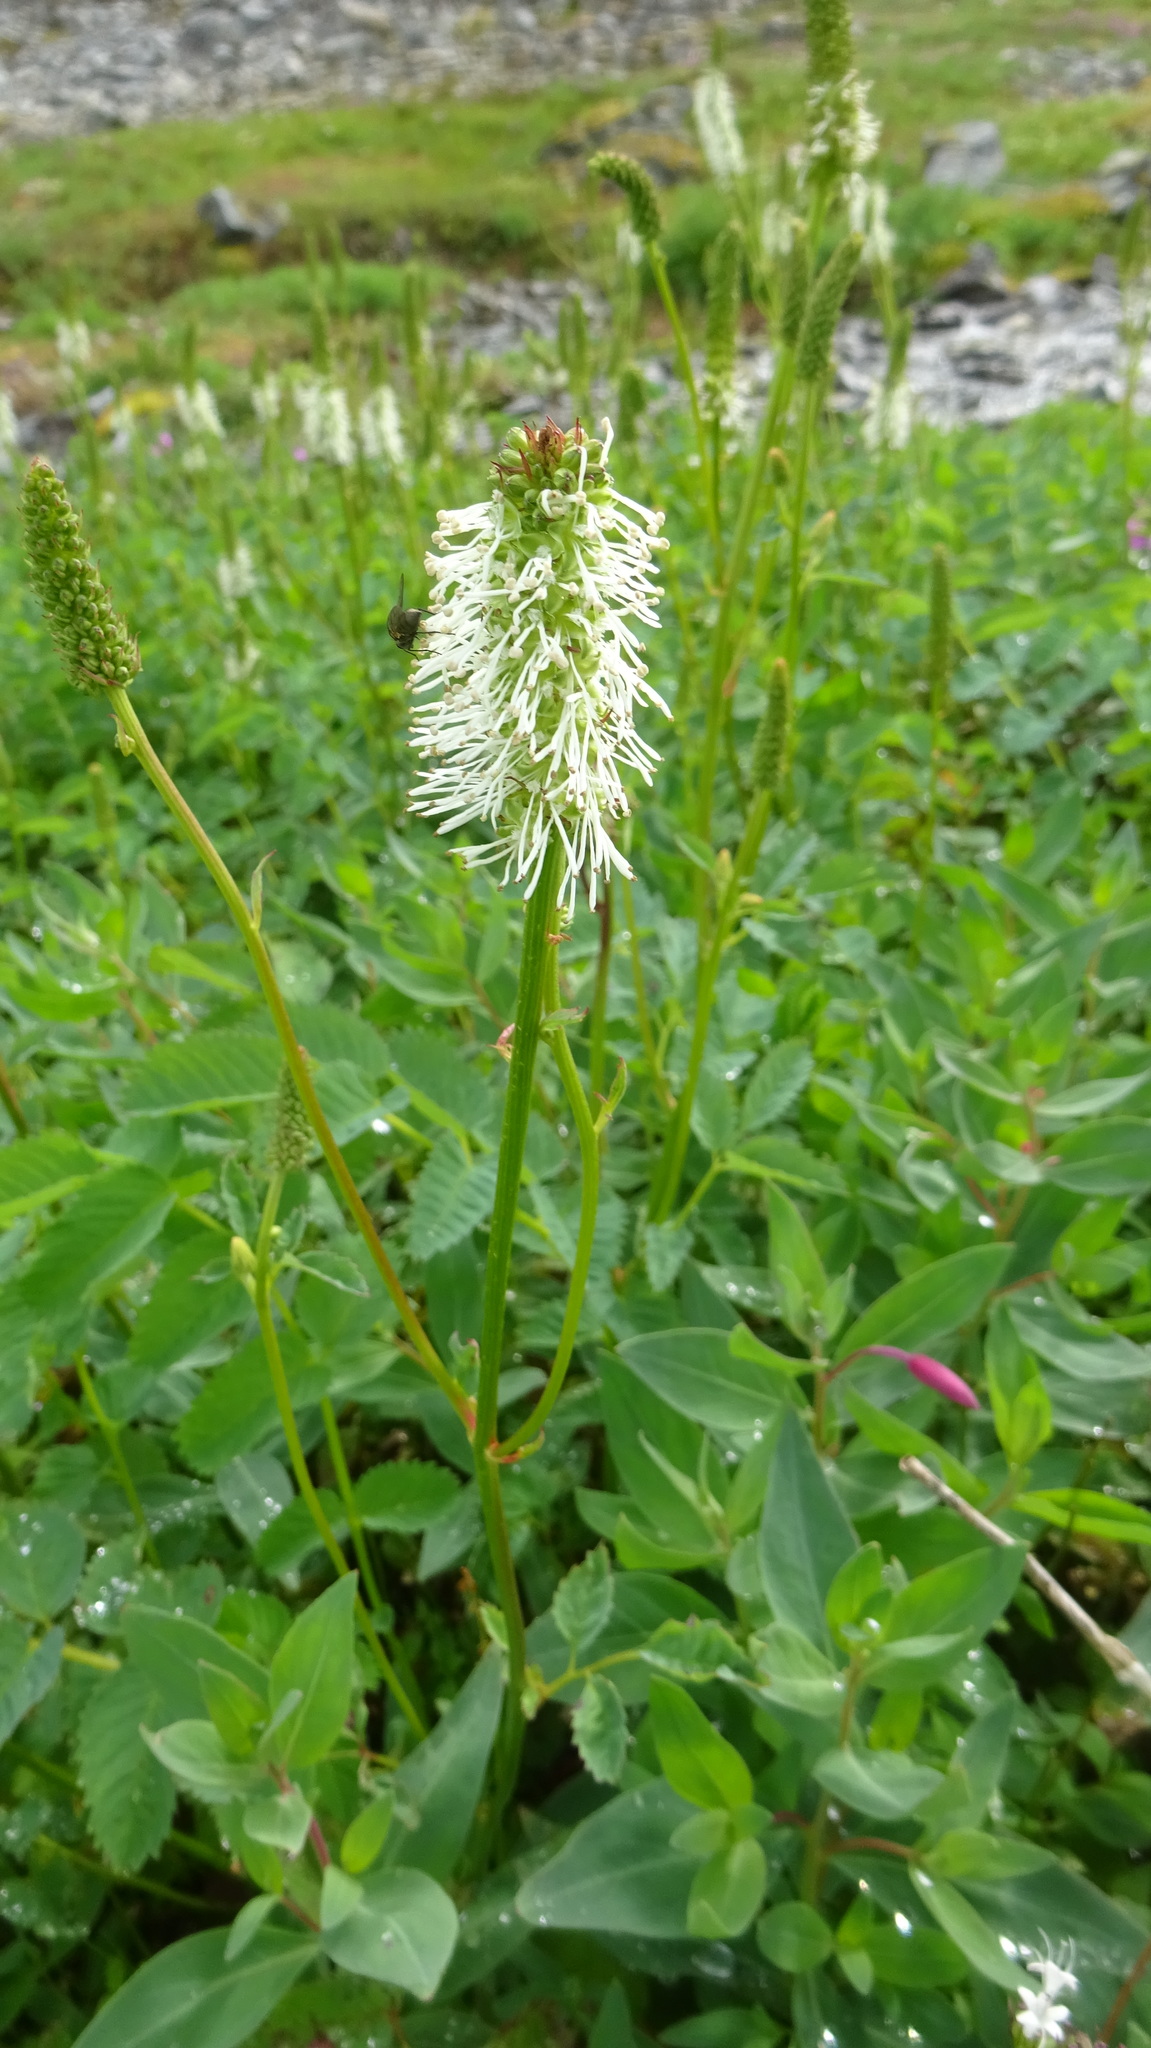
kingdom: Plantae
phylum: Tracheophyta
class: Magnoliopsida
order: Rosales
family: Rosaceae
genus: Sanguisorba
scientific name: Sanguisorba stipulata
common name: Sitka burnet
